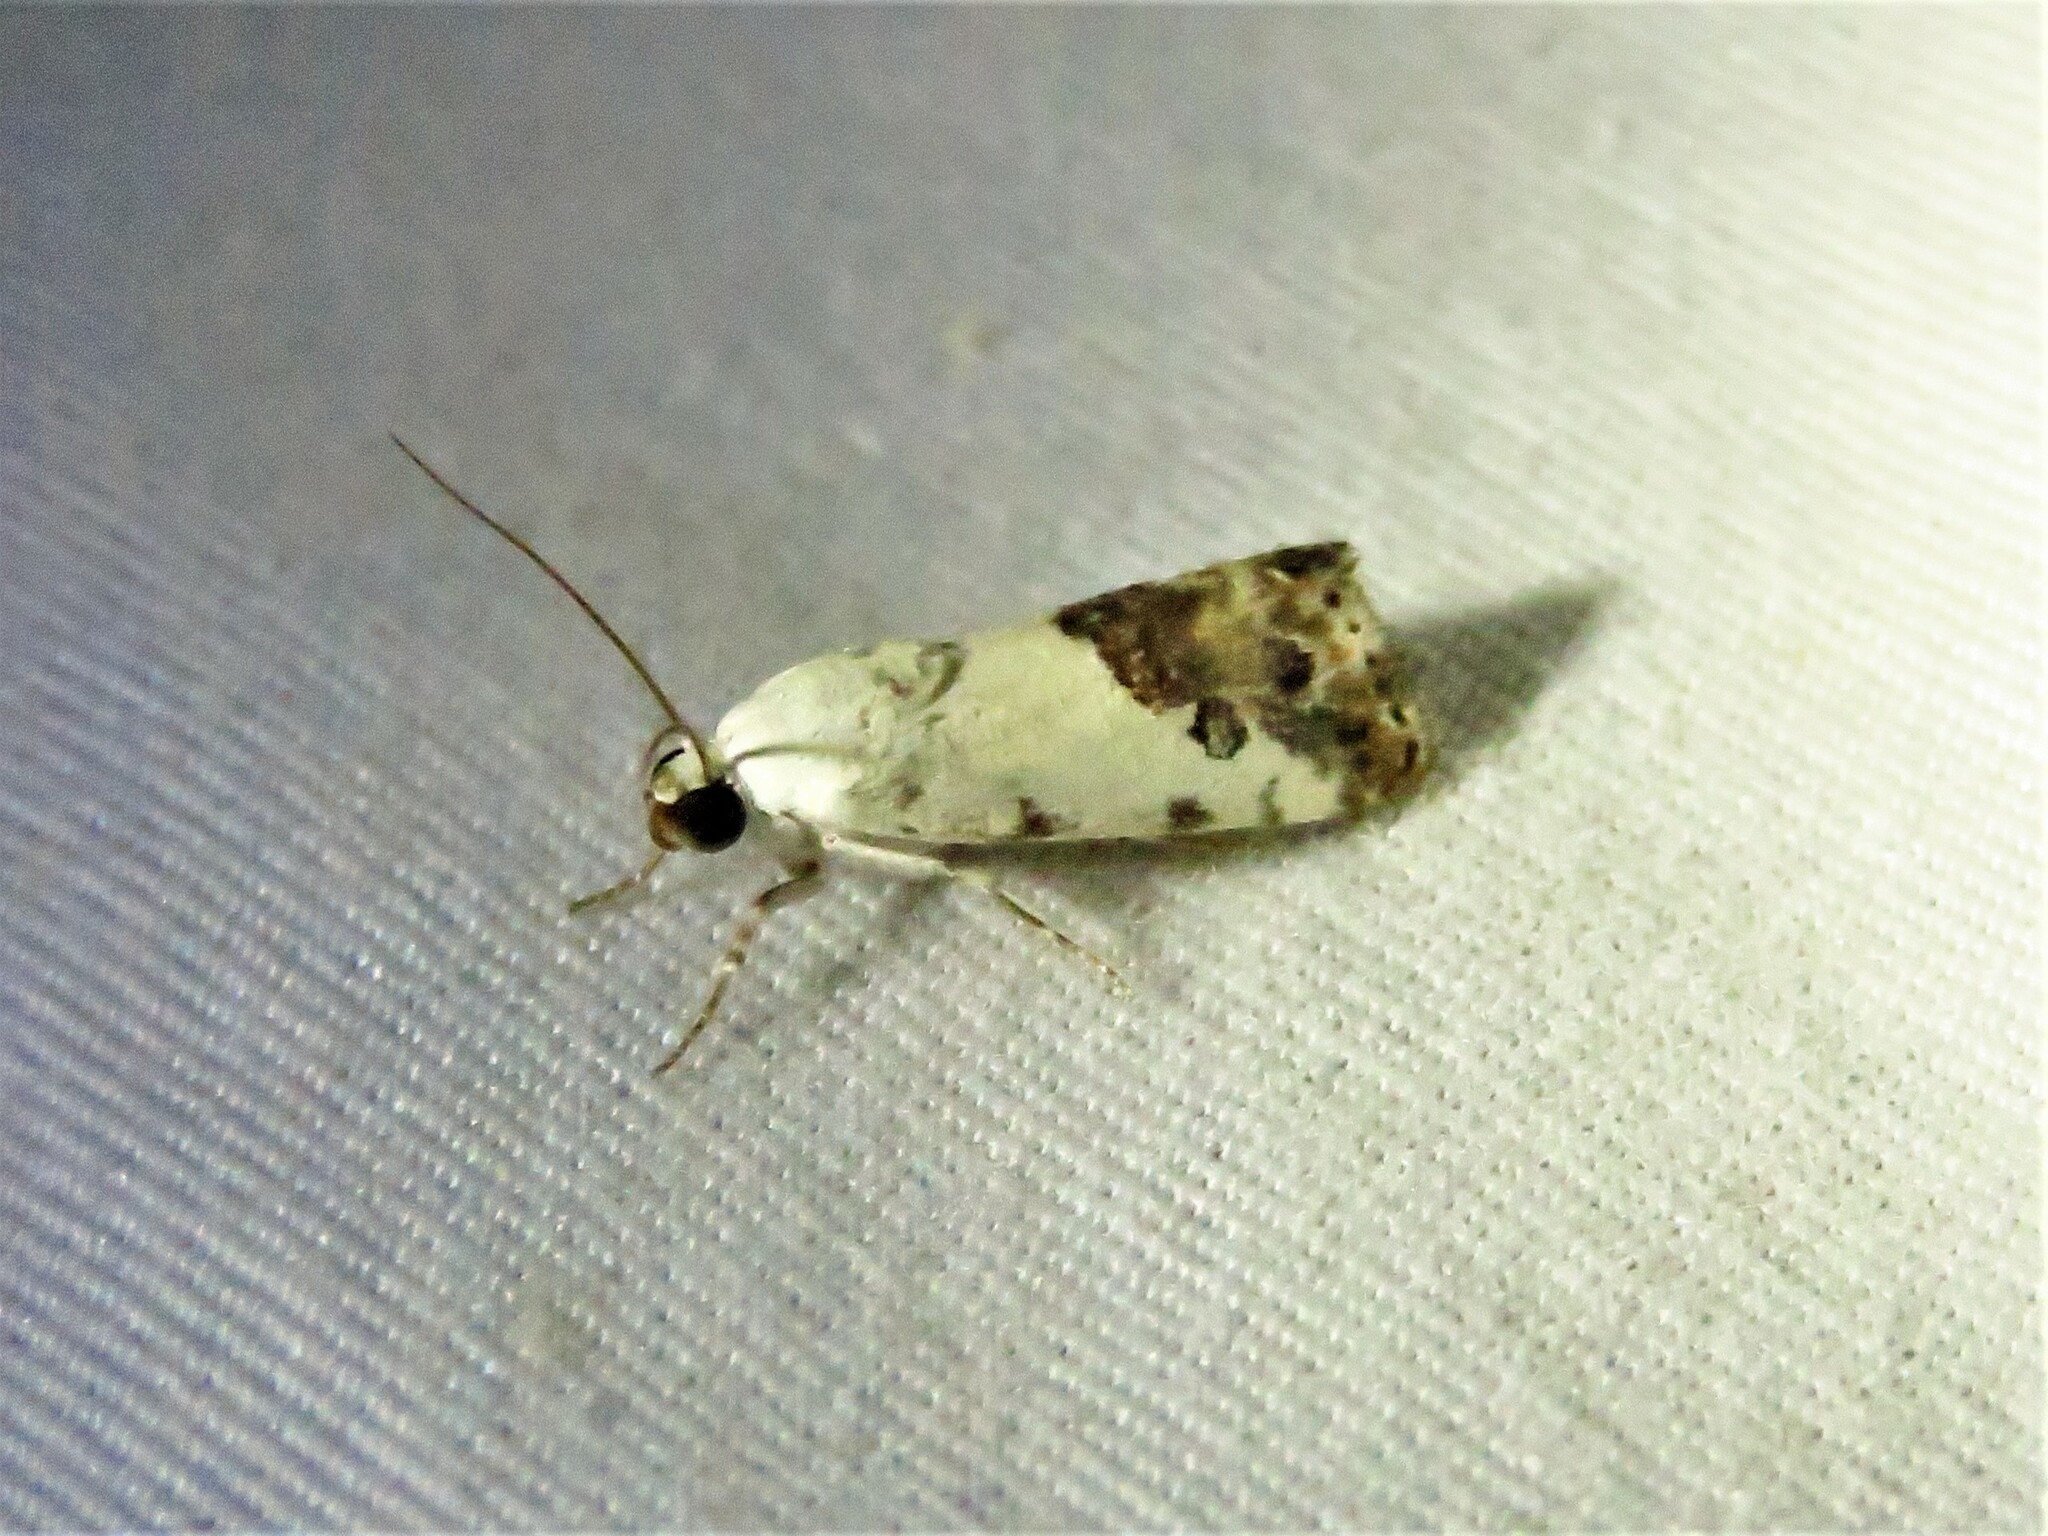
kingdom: Animalia
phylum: Arthropoda
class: Insecta
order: Lepidoptera
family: Noctuidae
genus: Acontia
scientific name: Acontia phecolisca
